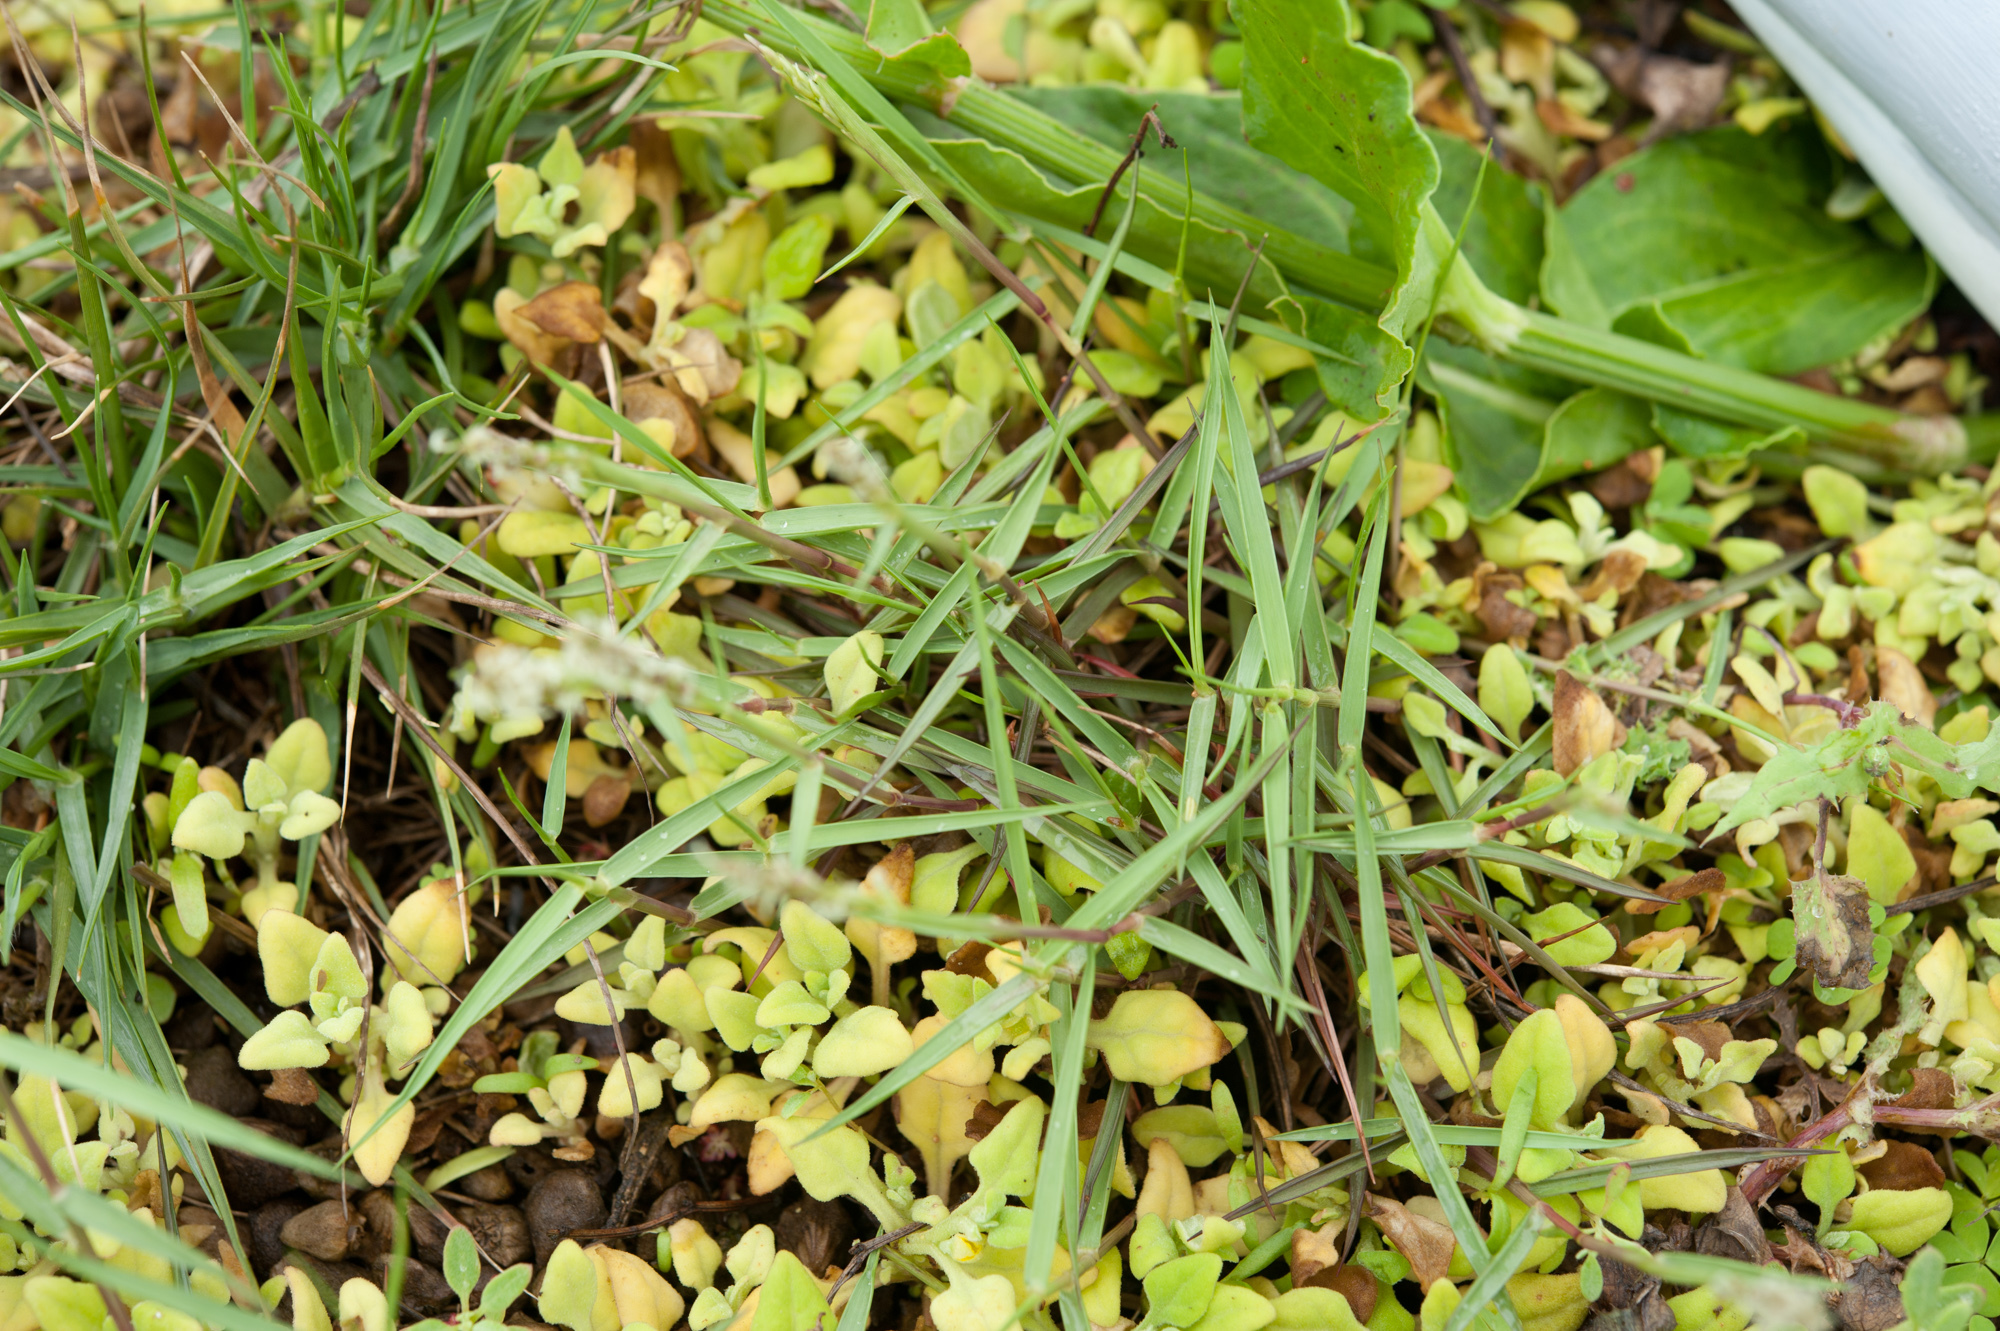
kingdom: Plantae
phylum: Tracheophyta
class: Liliopsida
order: Poales
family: Poaceae
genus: Zoysia
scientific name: Zoysia matrella
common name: Manila grass
